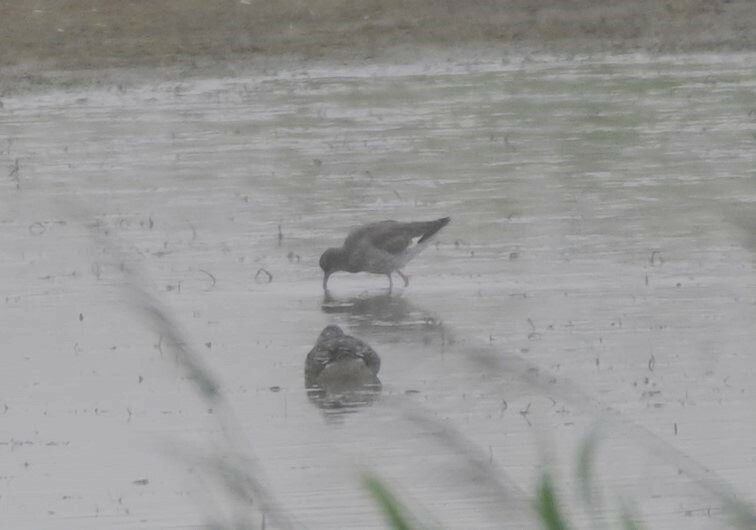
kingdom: Animalia
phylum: Chordata
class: Aves
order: Charadriiformes
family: Scolopacidae
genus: Tringa
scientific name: Tringa totanus
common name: Common redshank
